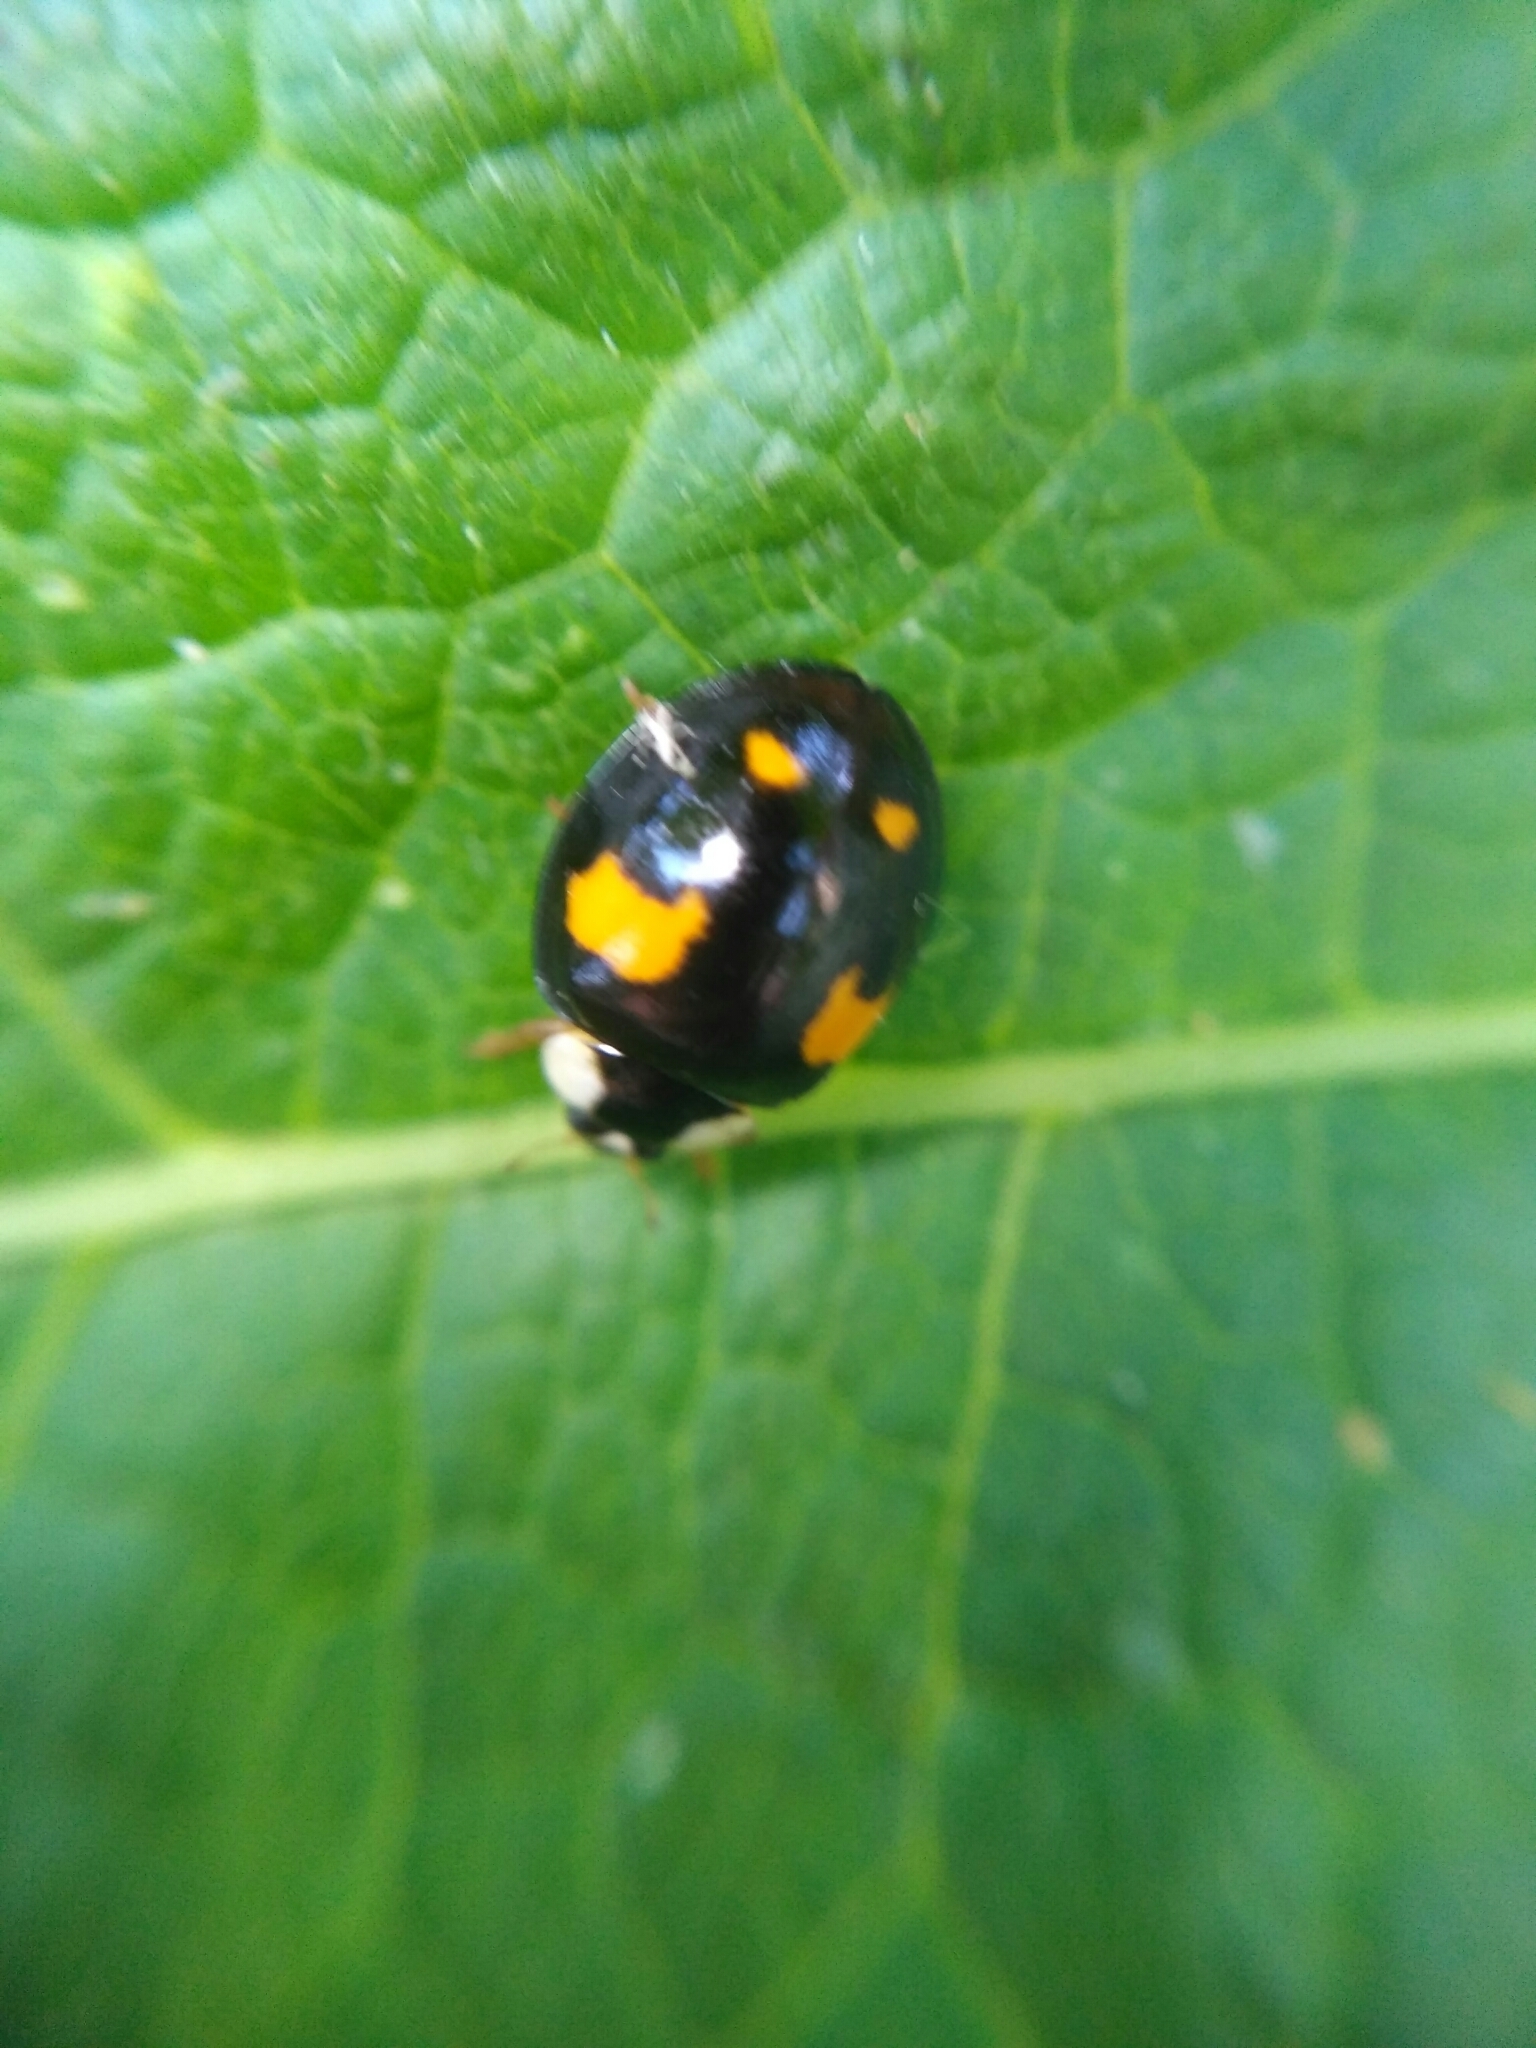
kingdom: Animalia
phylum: Arthropoda
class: Insecta
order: Coleoptera
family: Coccinellidae
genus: Harmonia
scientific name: Harmonia axyridis
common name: Harlequin ladybird
